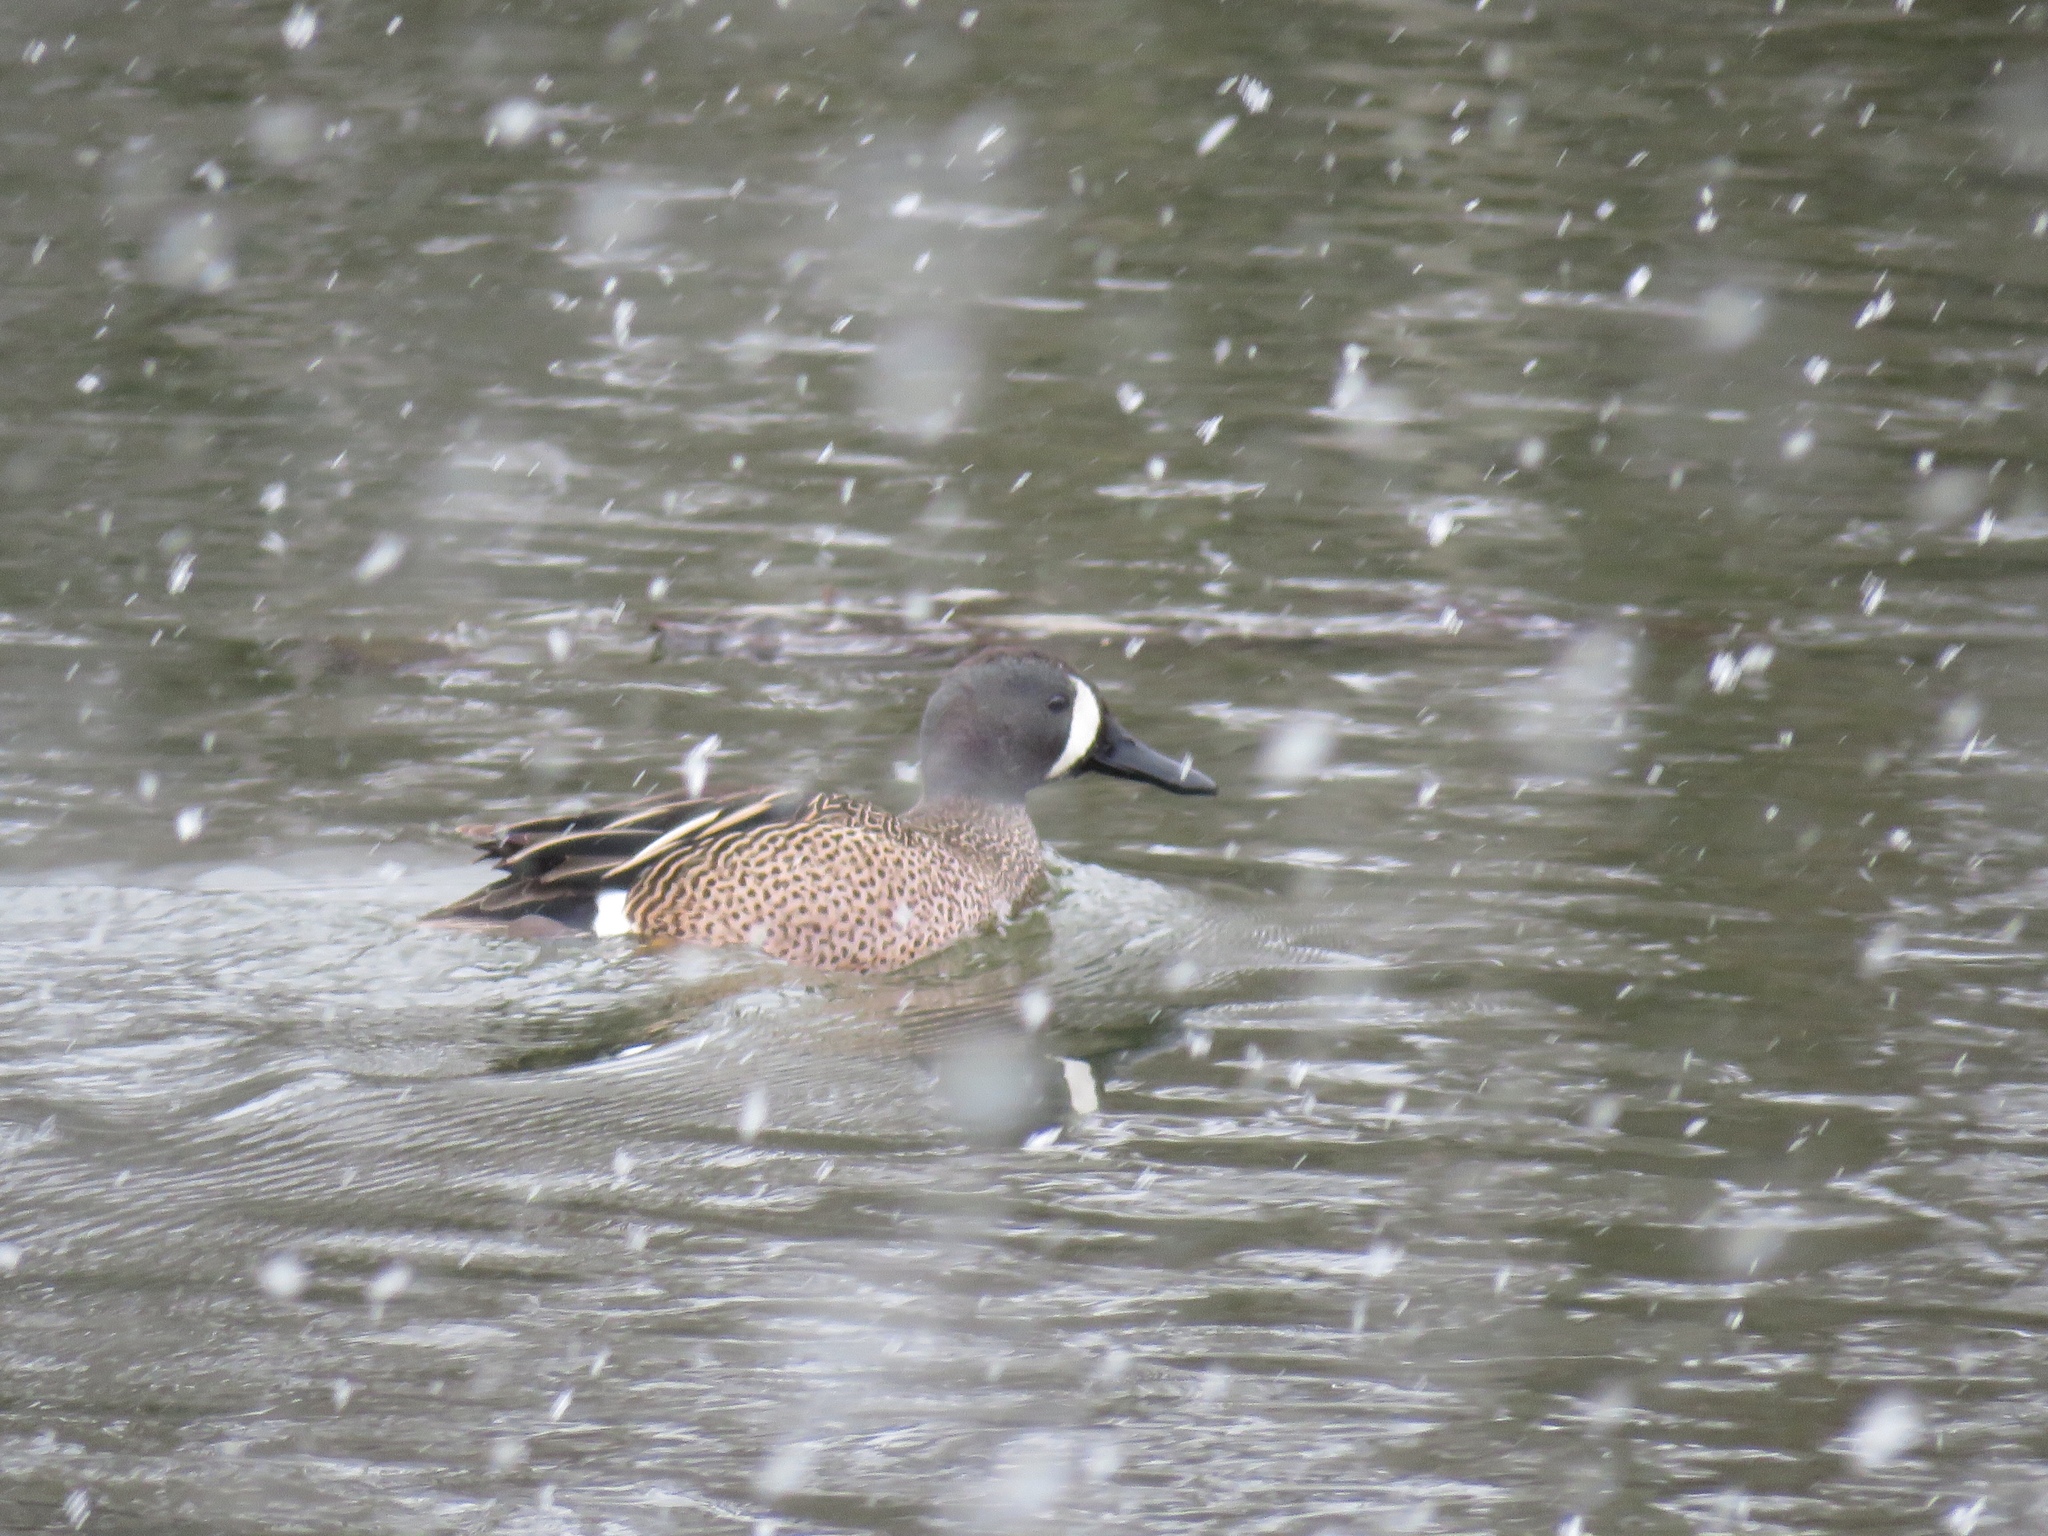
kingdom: Animalia
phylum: Chordata
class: Aves
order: Anseriformes
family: Anatidae
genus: Spatula
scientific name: Spatula discors
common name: Blue-winged teal
